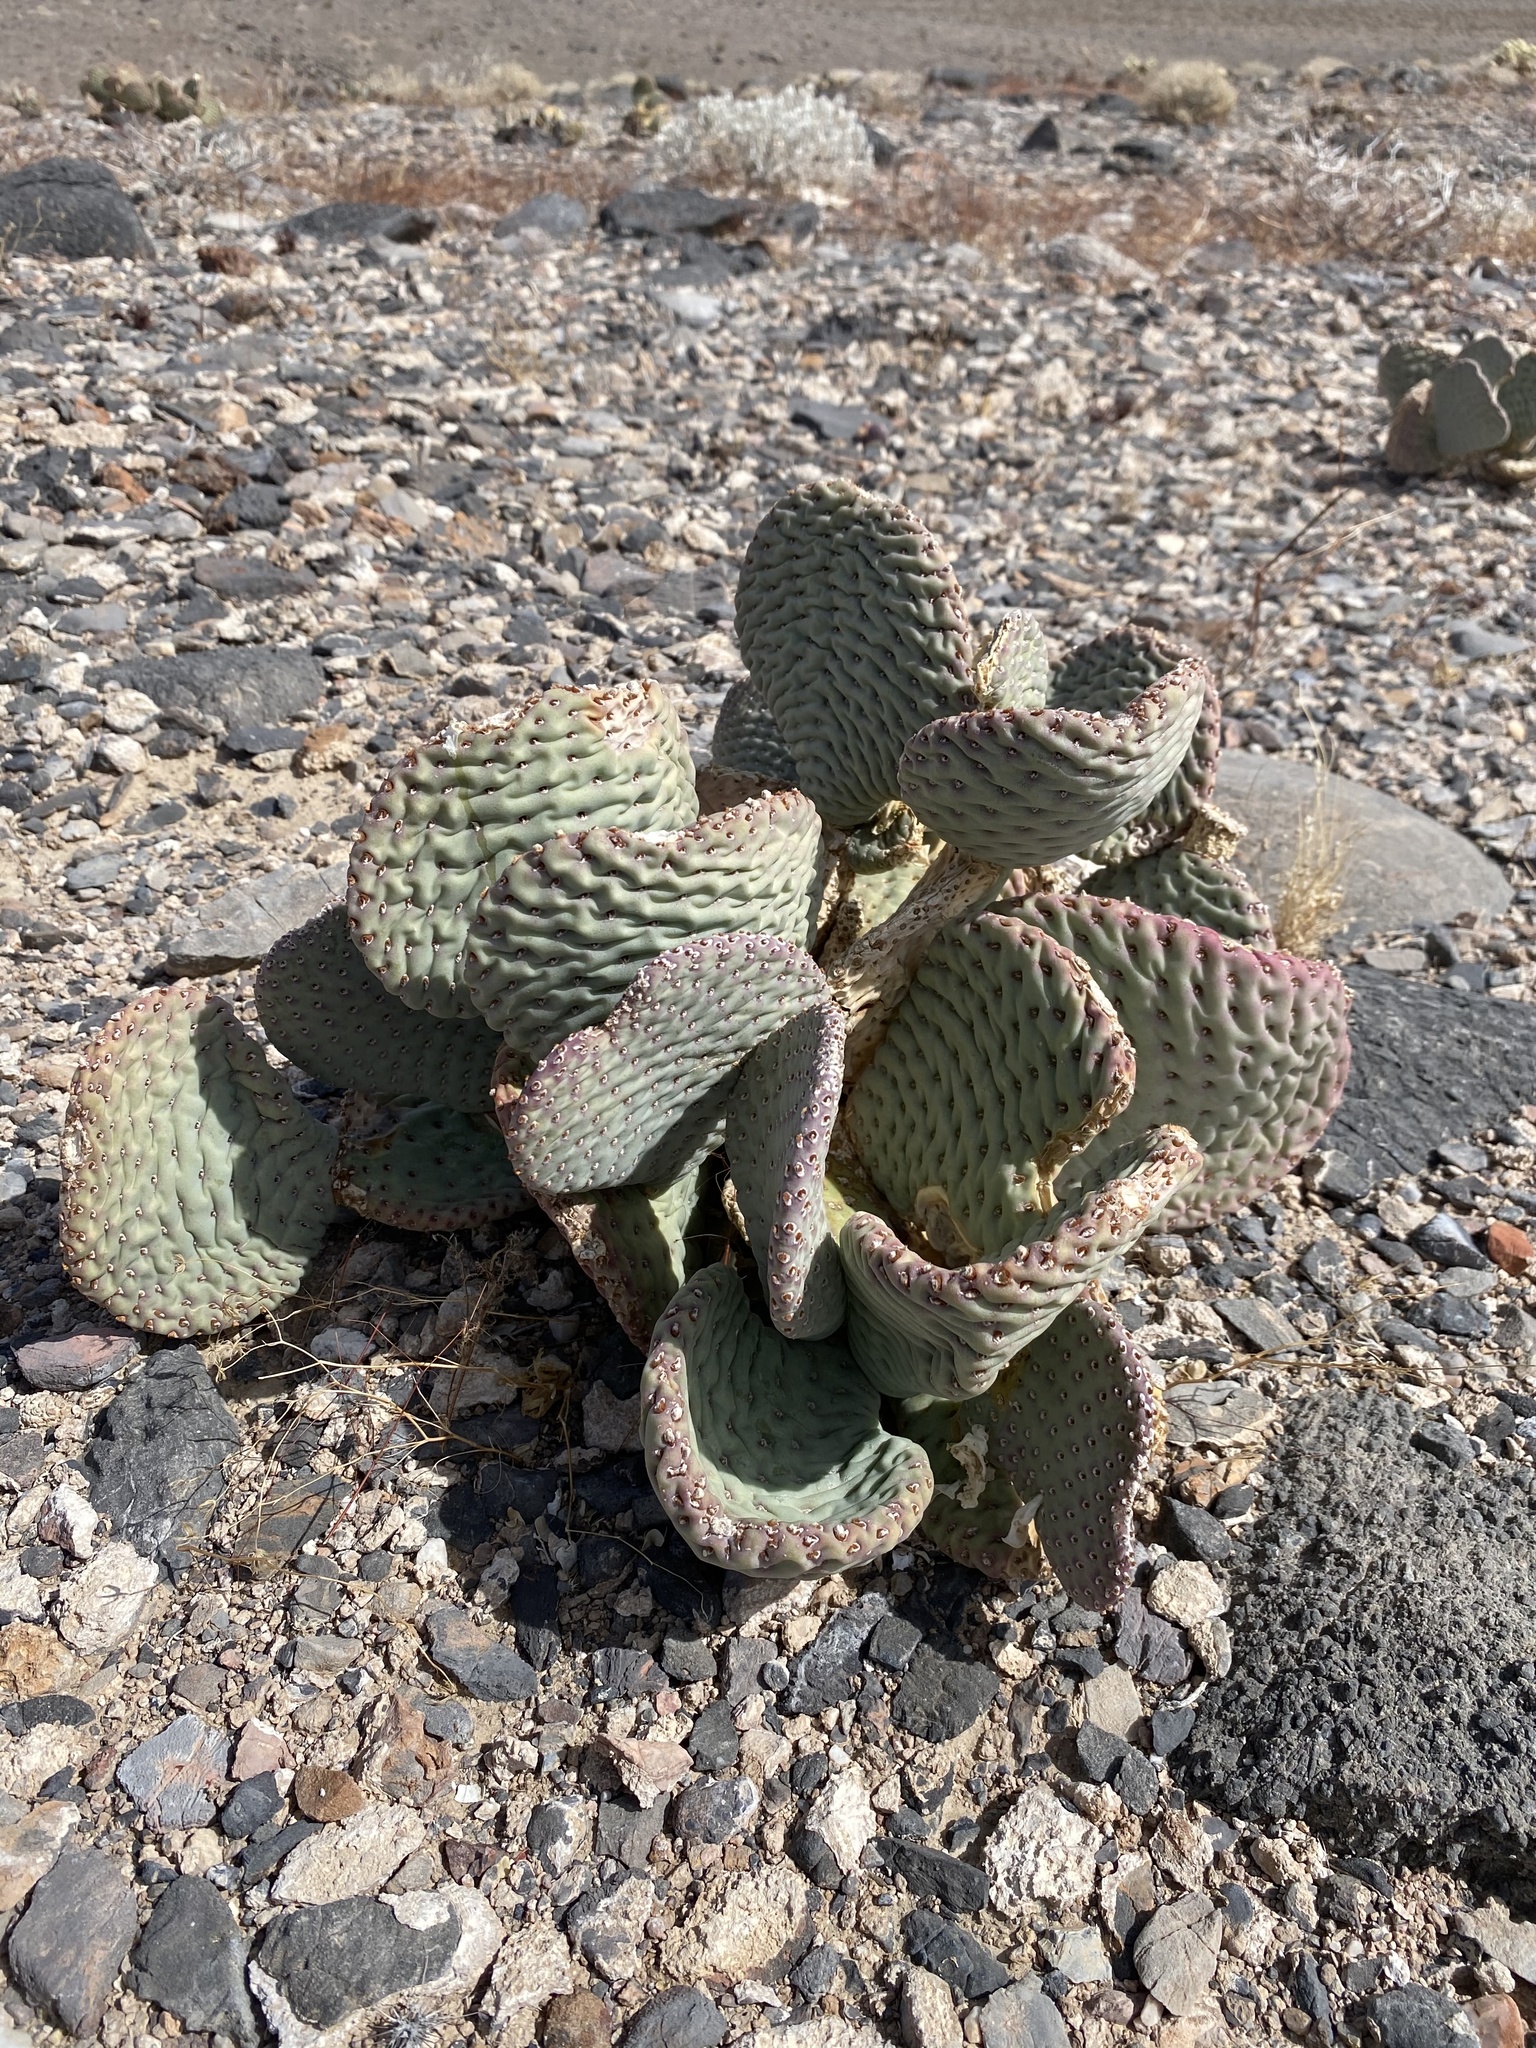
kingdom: Plantae
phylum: Tracheophyta
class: Magnoliopsida
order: Caryophyllales
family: Cactaceae
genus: Opuntia
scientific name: Opuntia basilaris
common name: Beavertail prickly-pear
